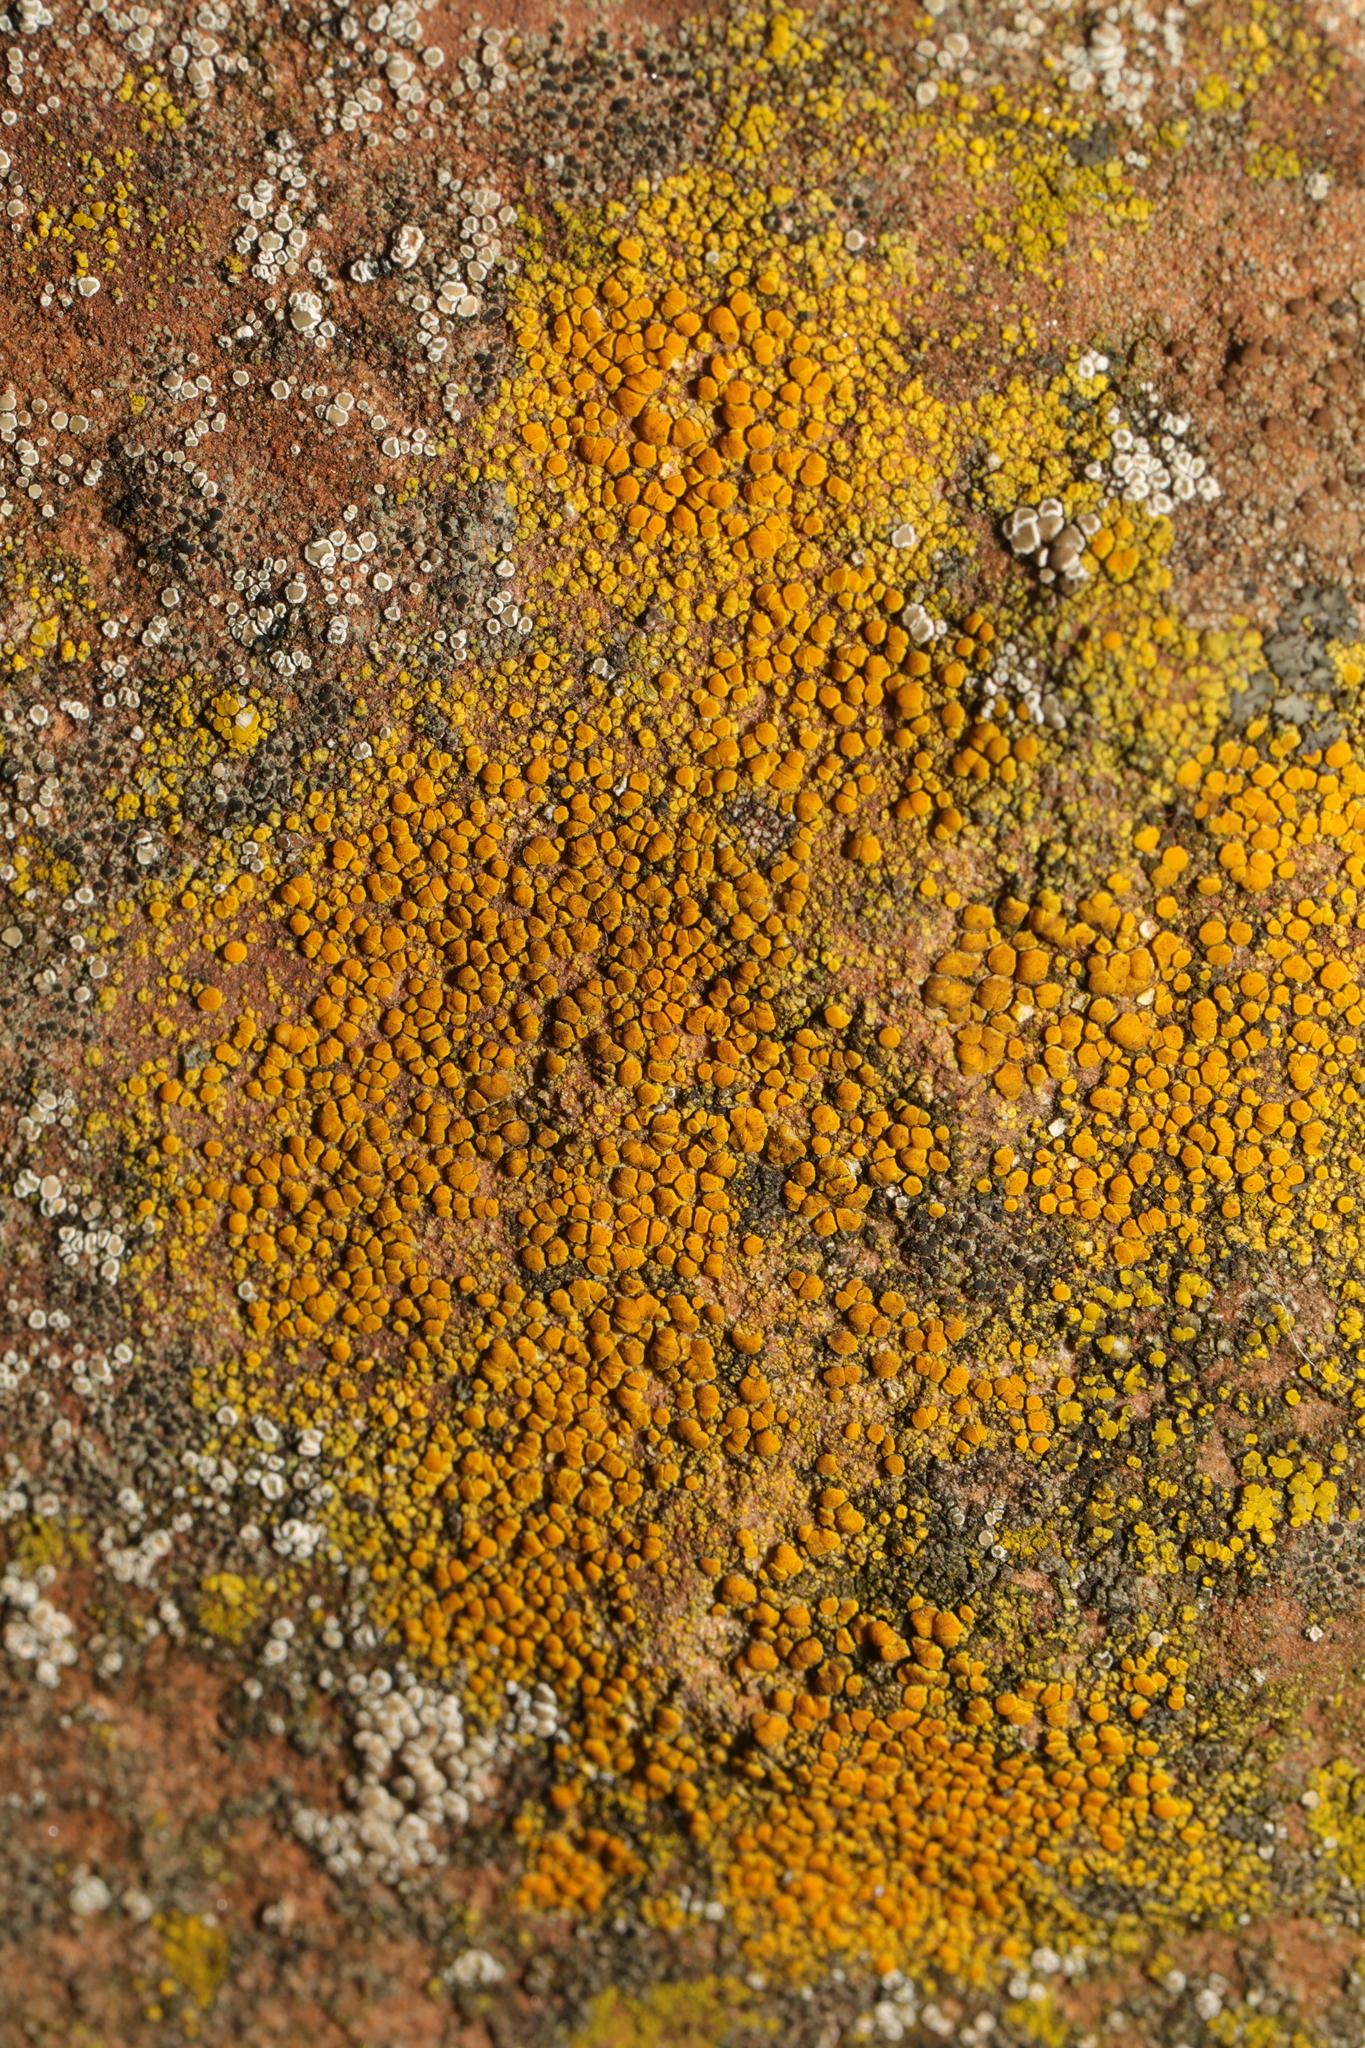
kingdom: Fungi
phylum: Ascomycota
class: Lecanoromycetes
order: Teloschistales
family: Teloschistaceae
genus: Athallia
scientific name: Athallia holocarpa
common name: Firedot lichen
